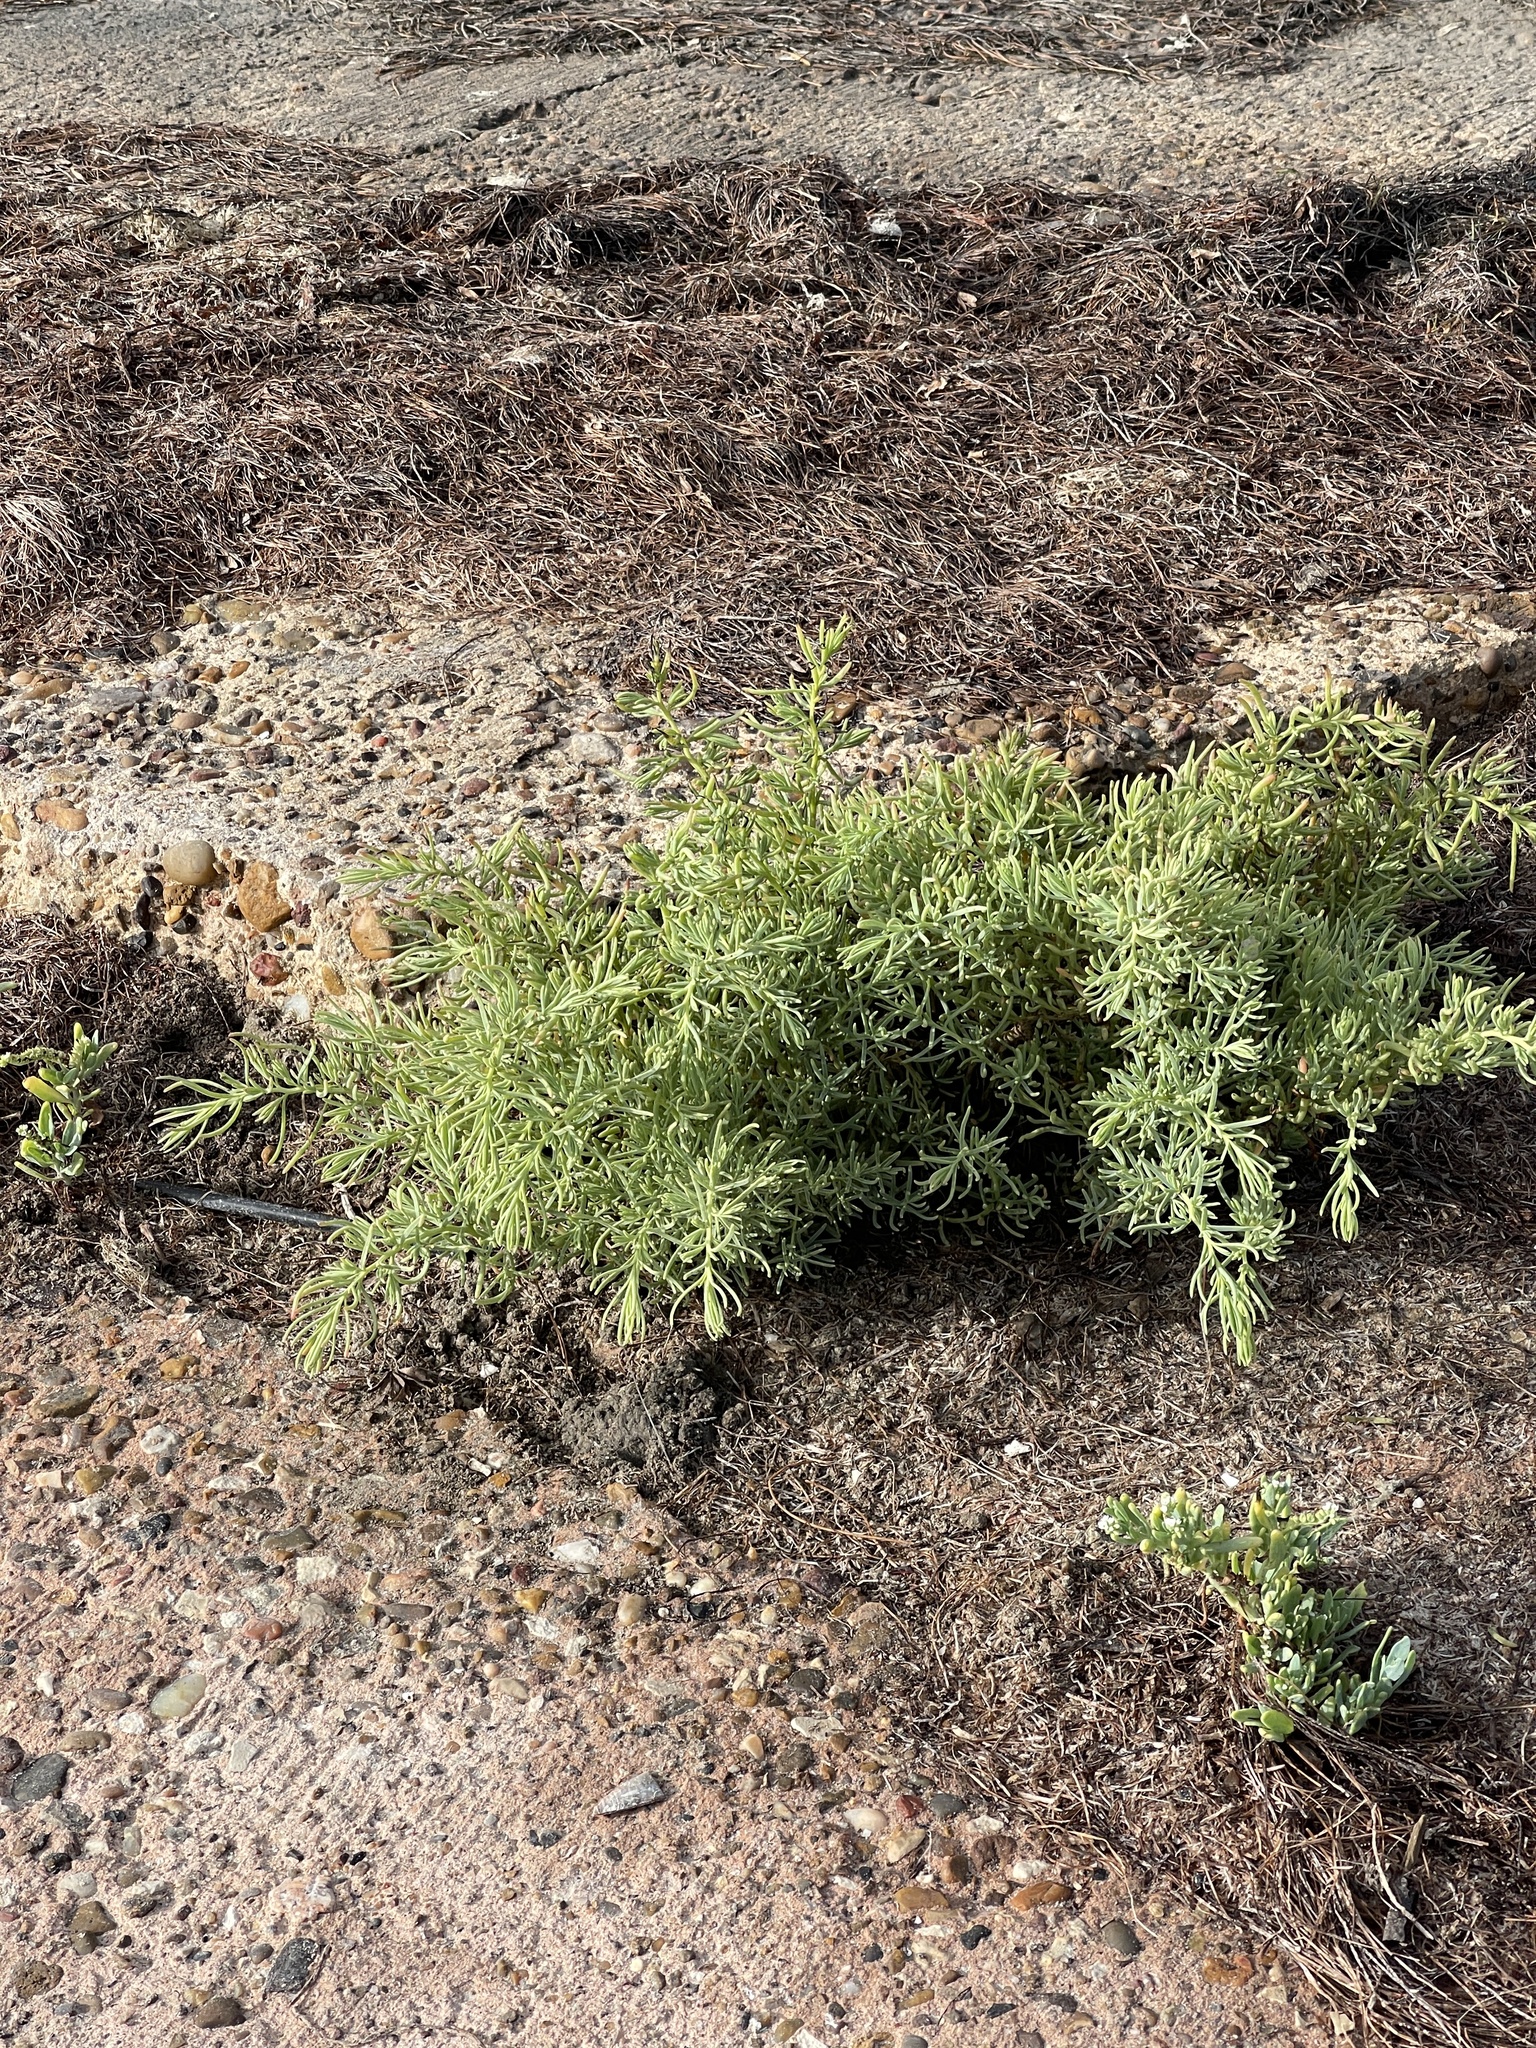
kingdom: Plantae
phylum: Tracheophyta
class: Magnoliopsida
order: Brassicales
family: Bataceae
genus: Batis
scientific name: Batis maritima
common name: Turtleweed
